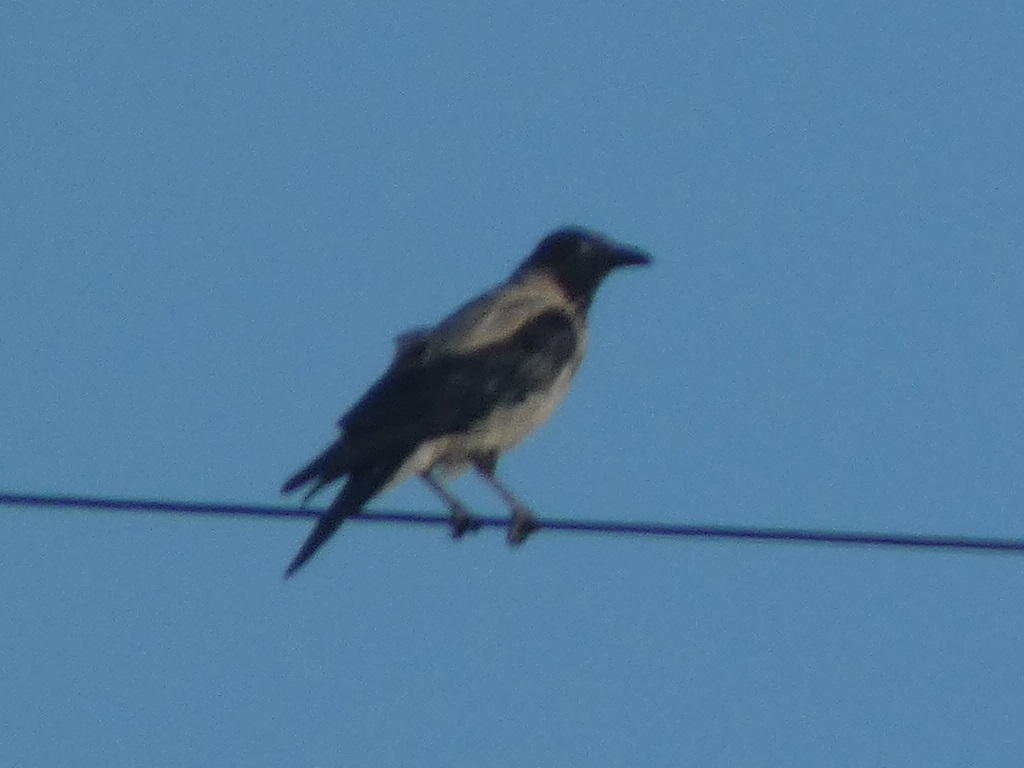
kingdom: Animalia
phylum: Chordata
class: Aves
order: Passeriformes
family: Corvidae
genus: Corvus
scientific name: Corvus cornix
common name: Hooded crow
